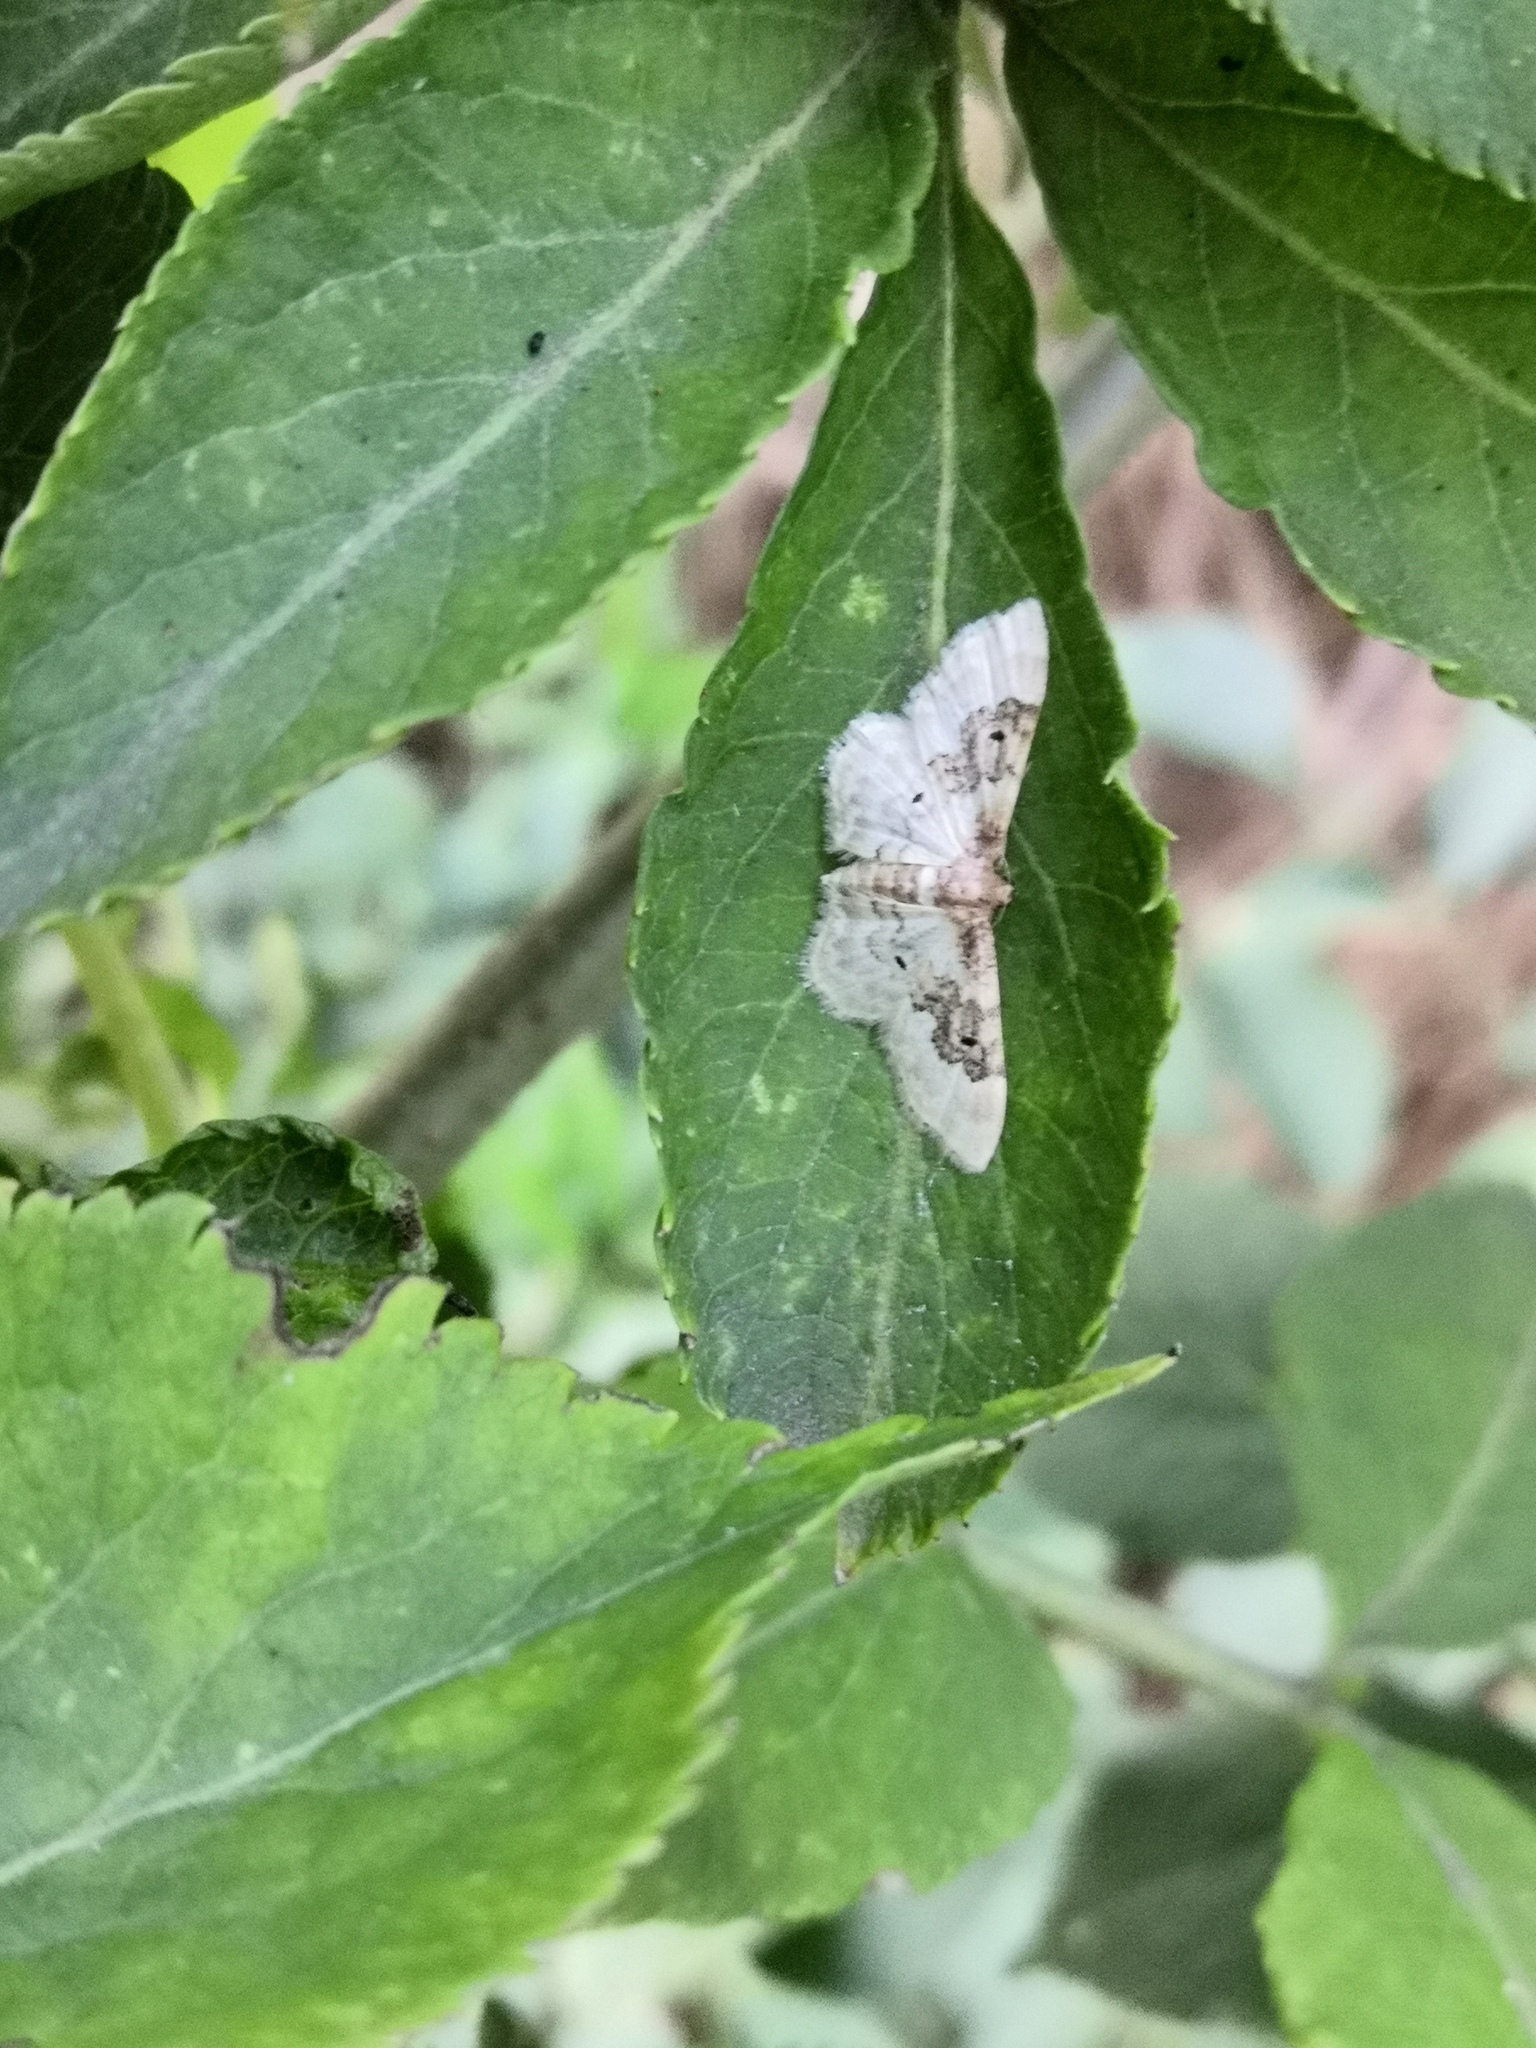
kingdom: Animalia
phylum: Arthropoda
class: Insecta
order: Lepidoptera
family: Geometridae
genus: Idaea
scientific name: Idaea rusticata
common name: Least carpet
